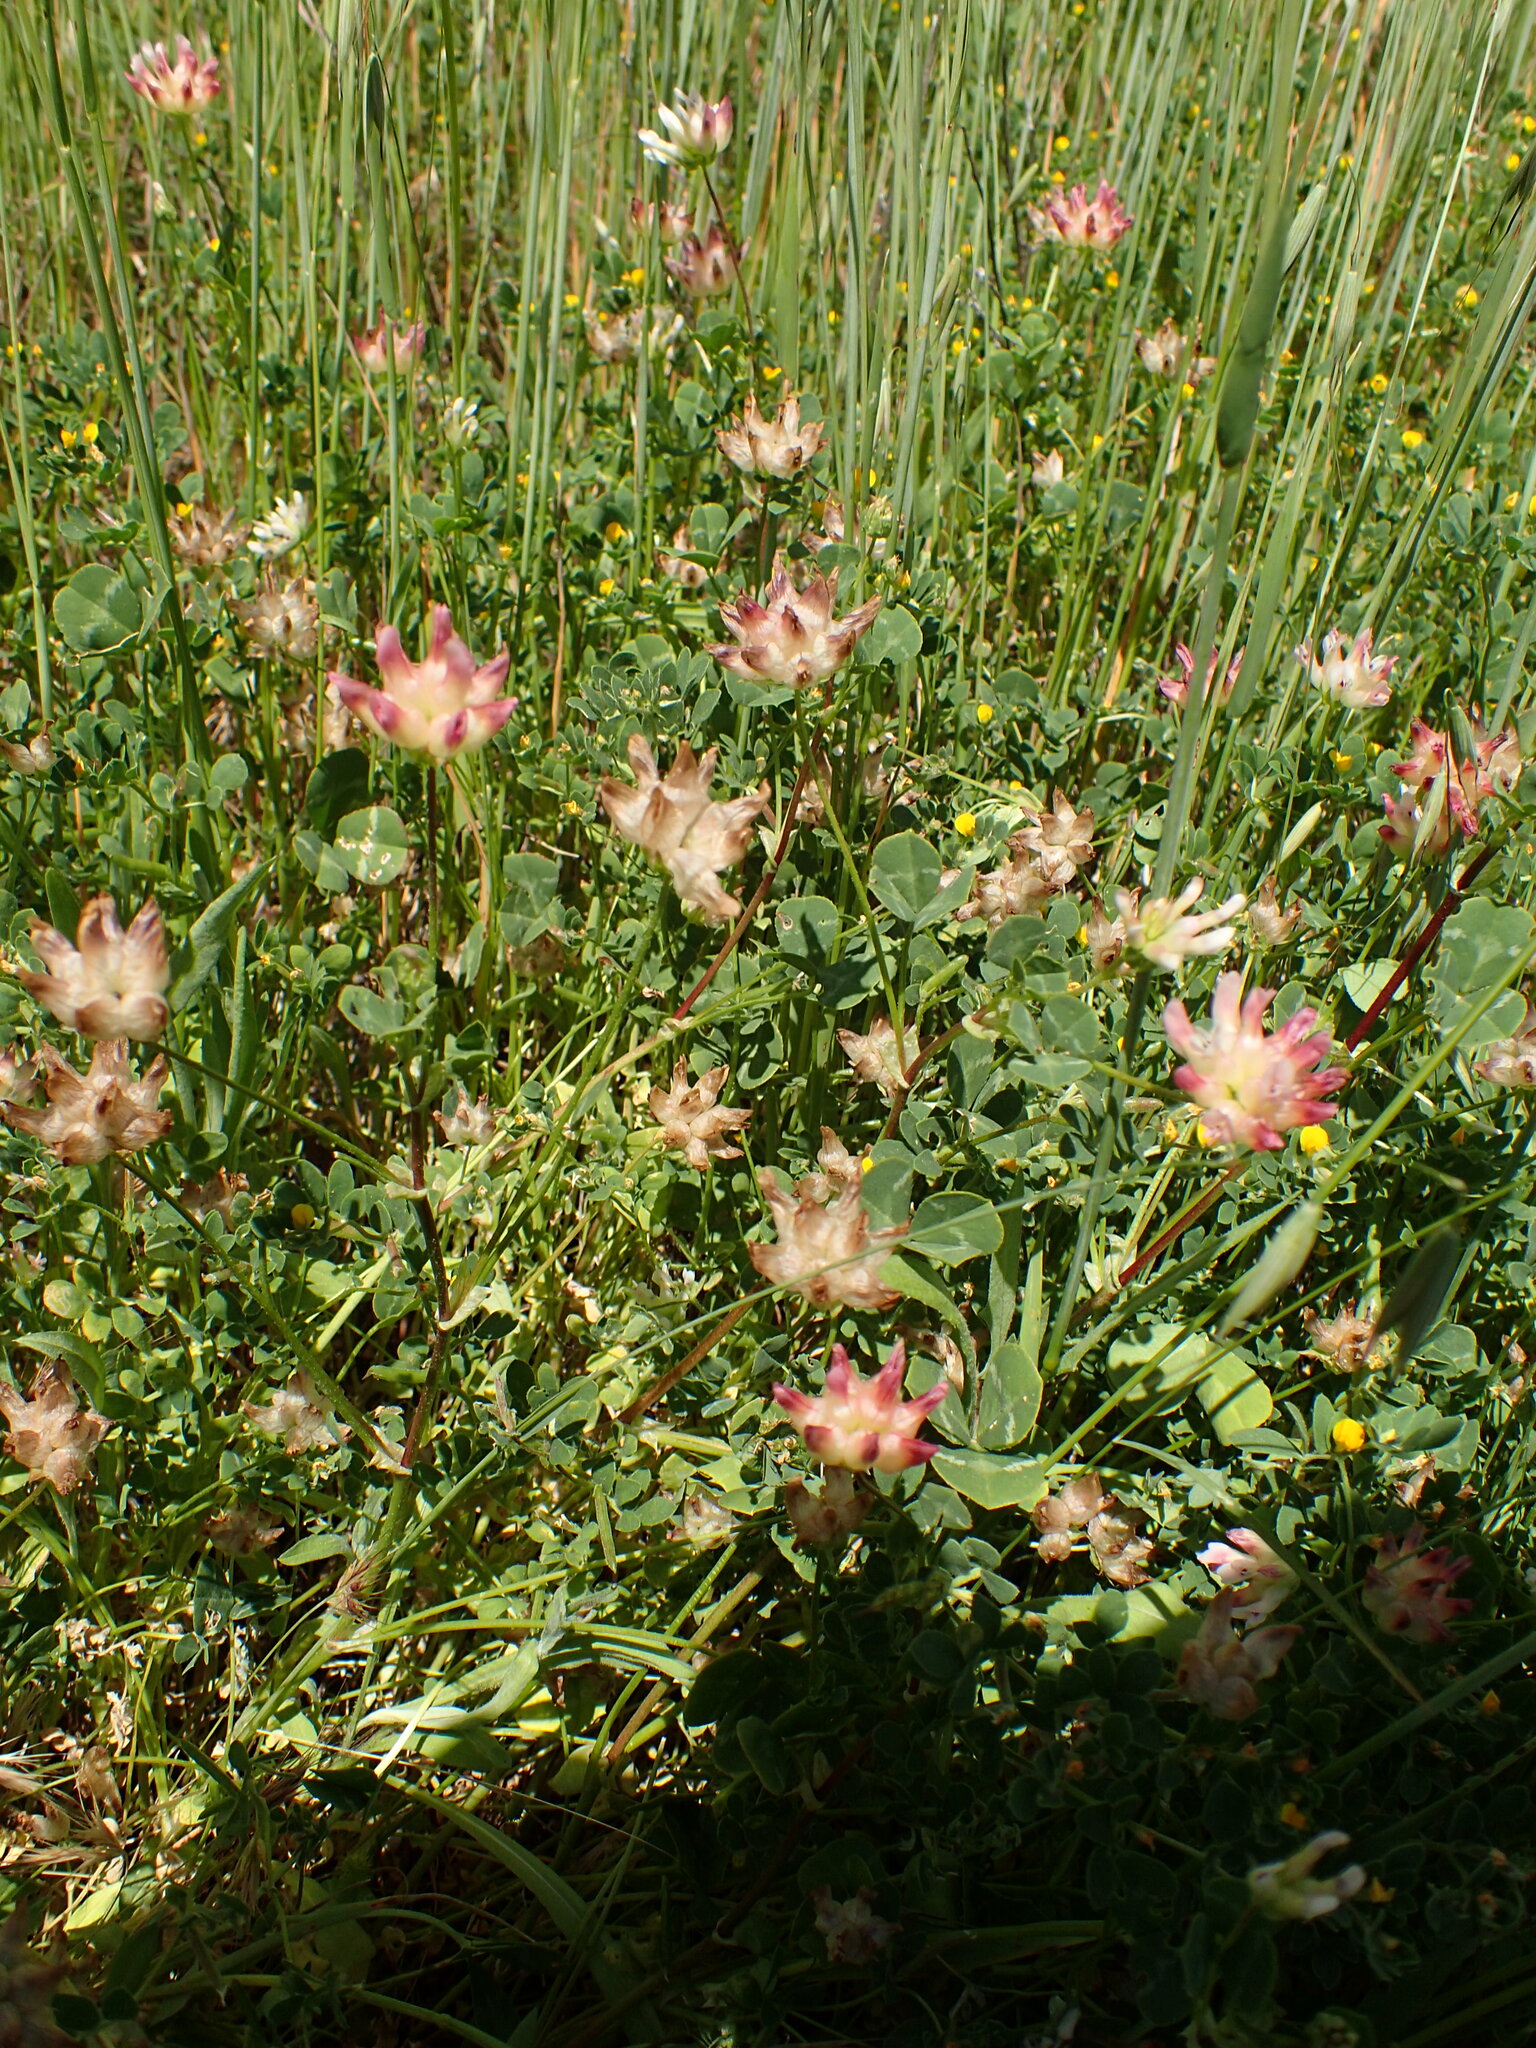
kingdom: Plantae
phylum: Tracheophyta
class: Magnoliopsida
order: Fabales
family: Fabaceae
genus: Trifolium
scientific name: Trifolium fucatum
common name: Puff clover
